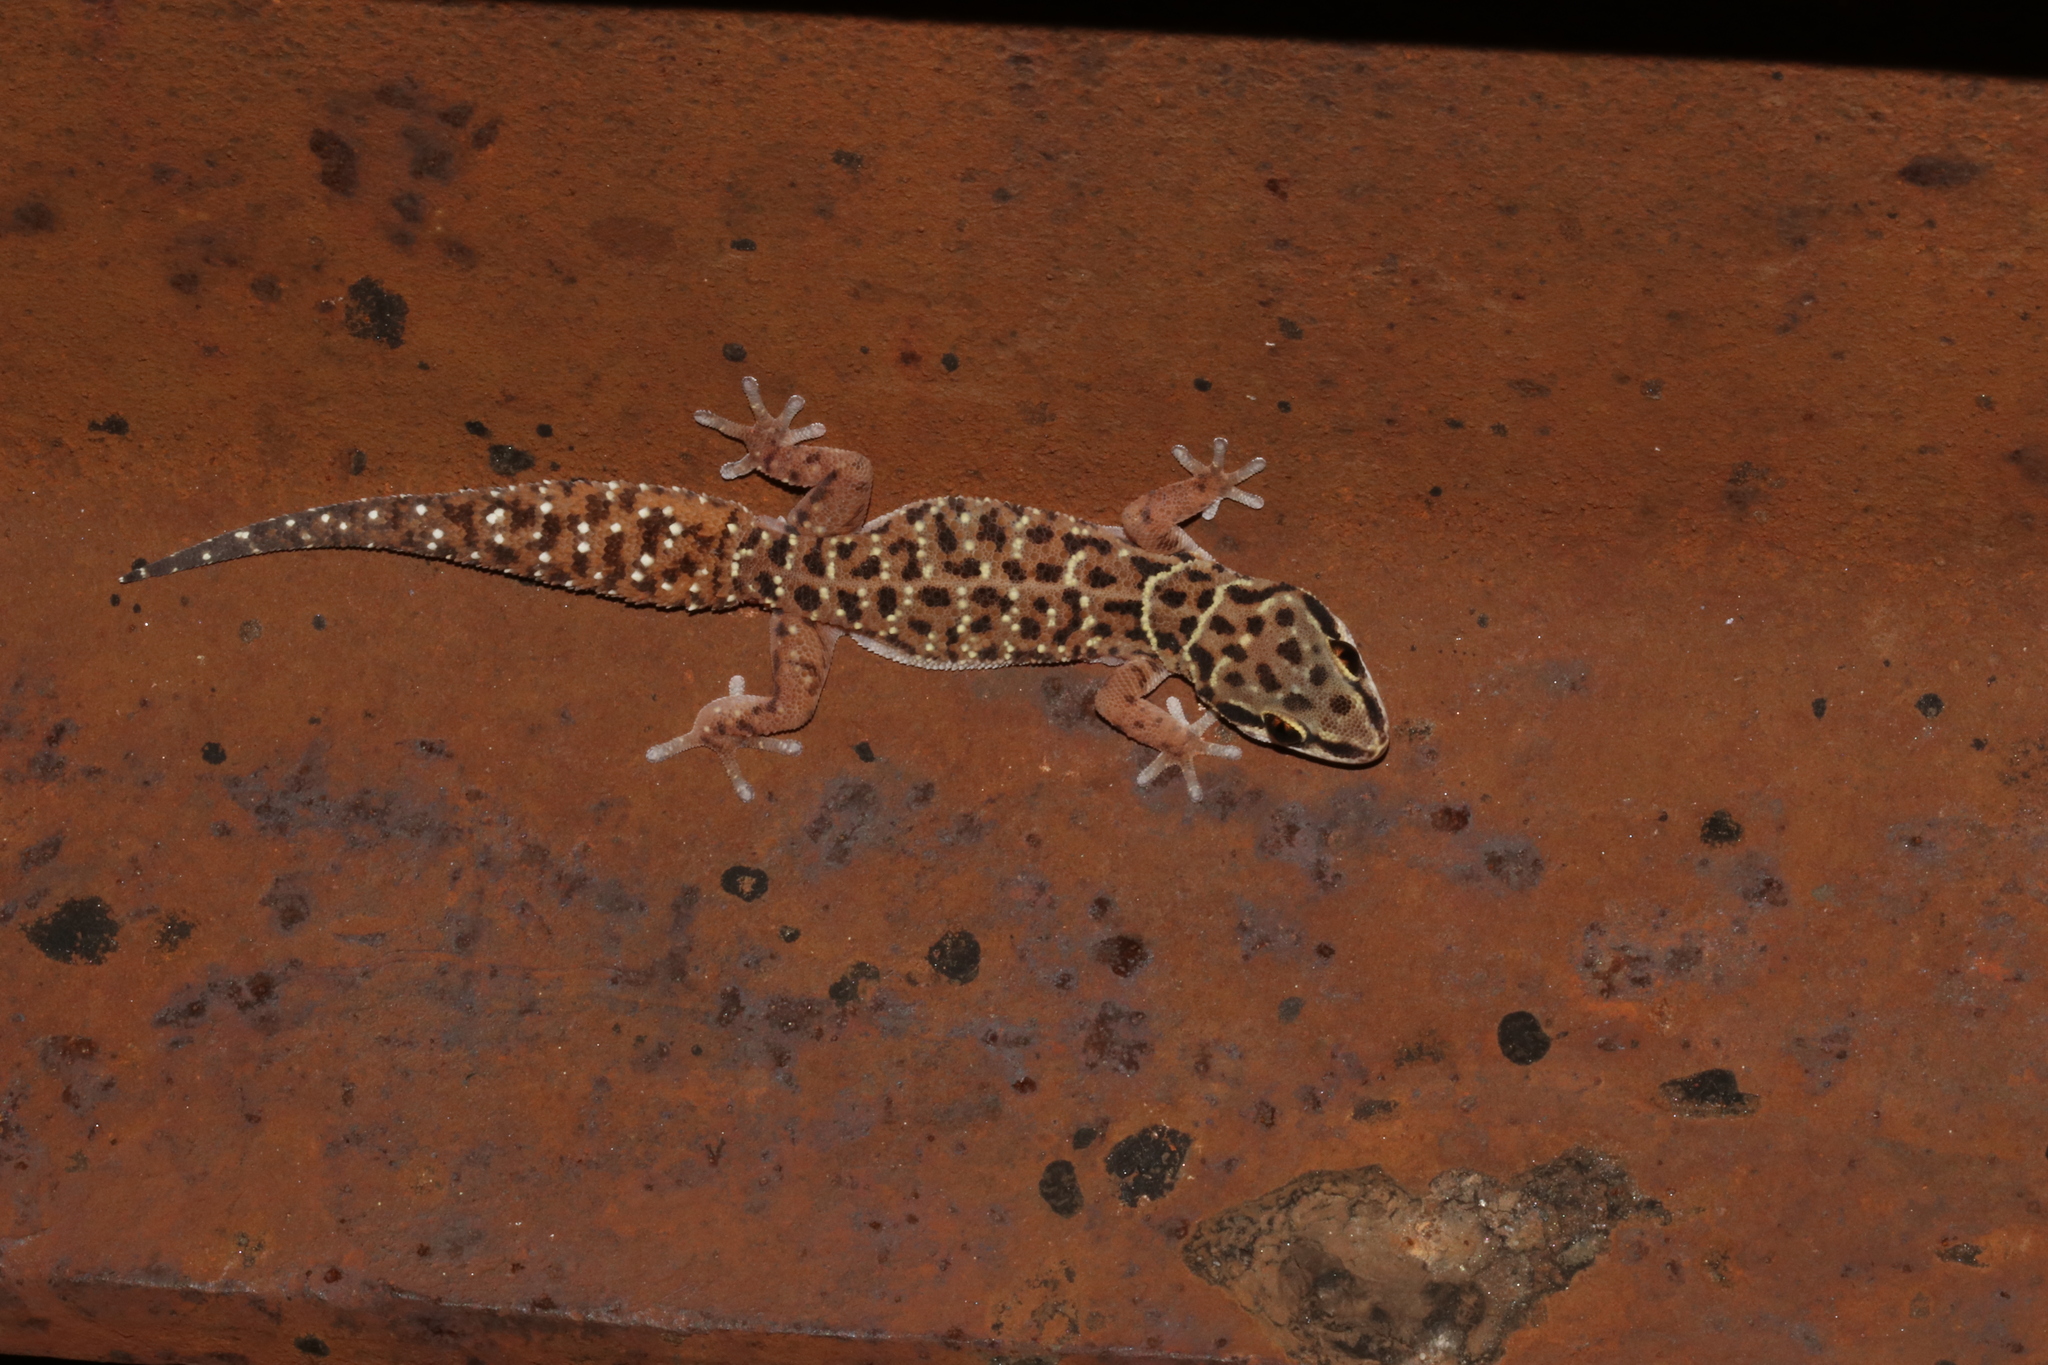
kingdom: Animalia
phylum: Chordata
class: Squamata
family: Gekkonidae
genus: Pachydactylus
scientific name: Pachydactylus affinis
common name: Transvaal gecko
